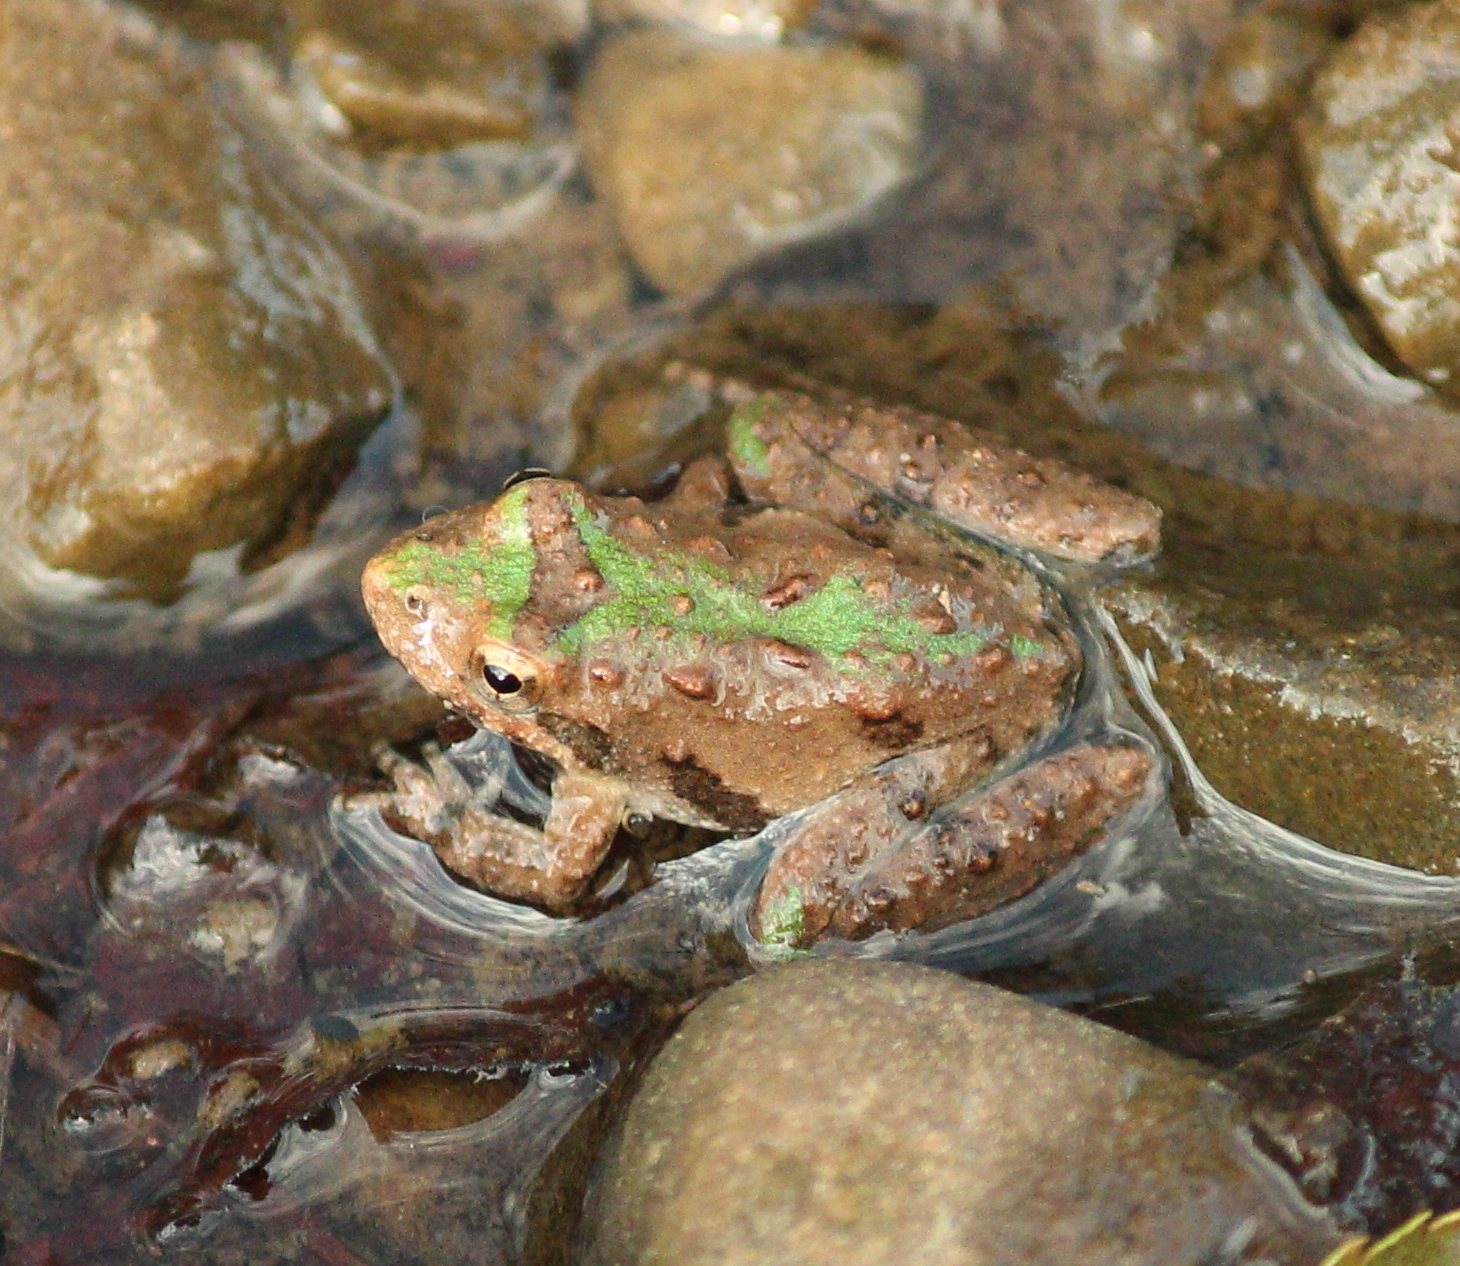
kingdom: Animalia
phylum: Chordata
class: Amphibia
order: Anura
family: Hylidae
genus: Acris
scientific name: Acris blanchardi
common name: Blanchard's cricket frog
